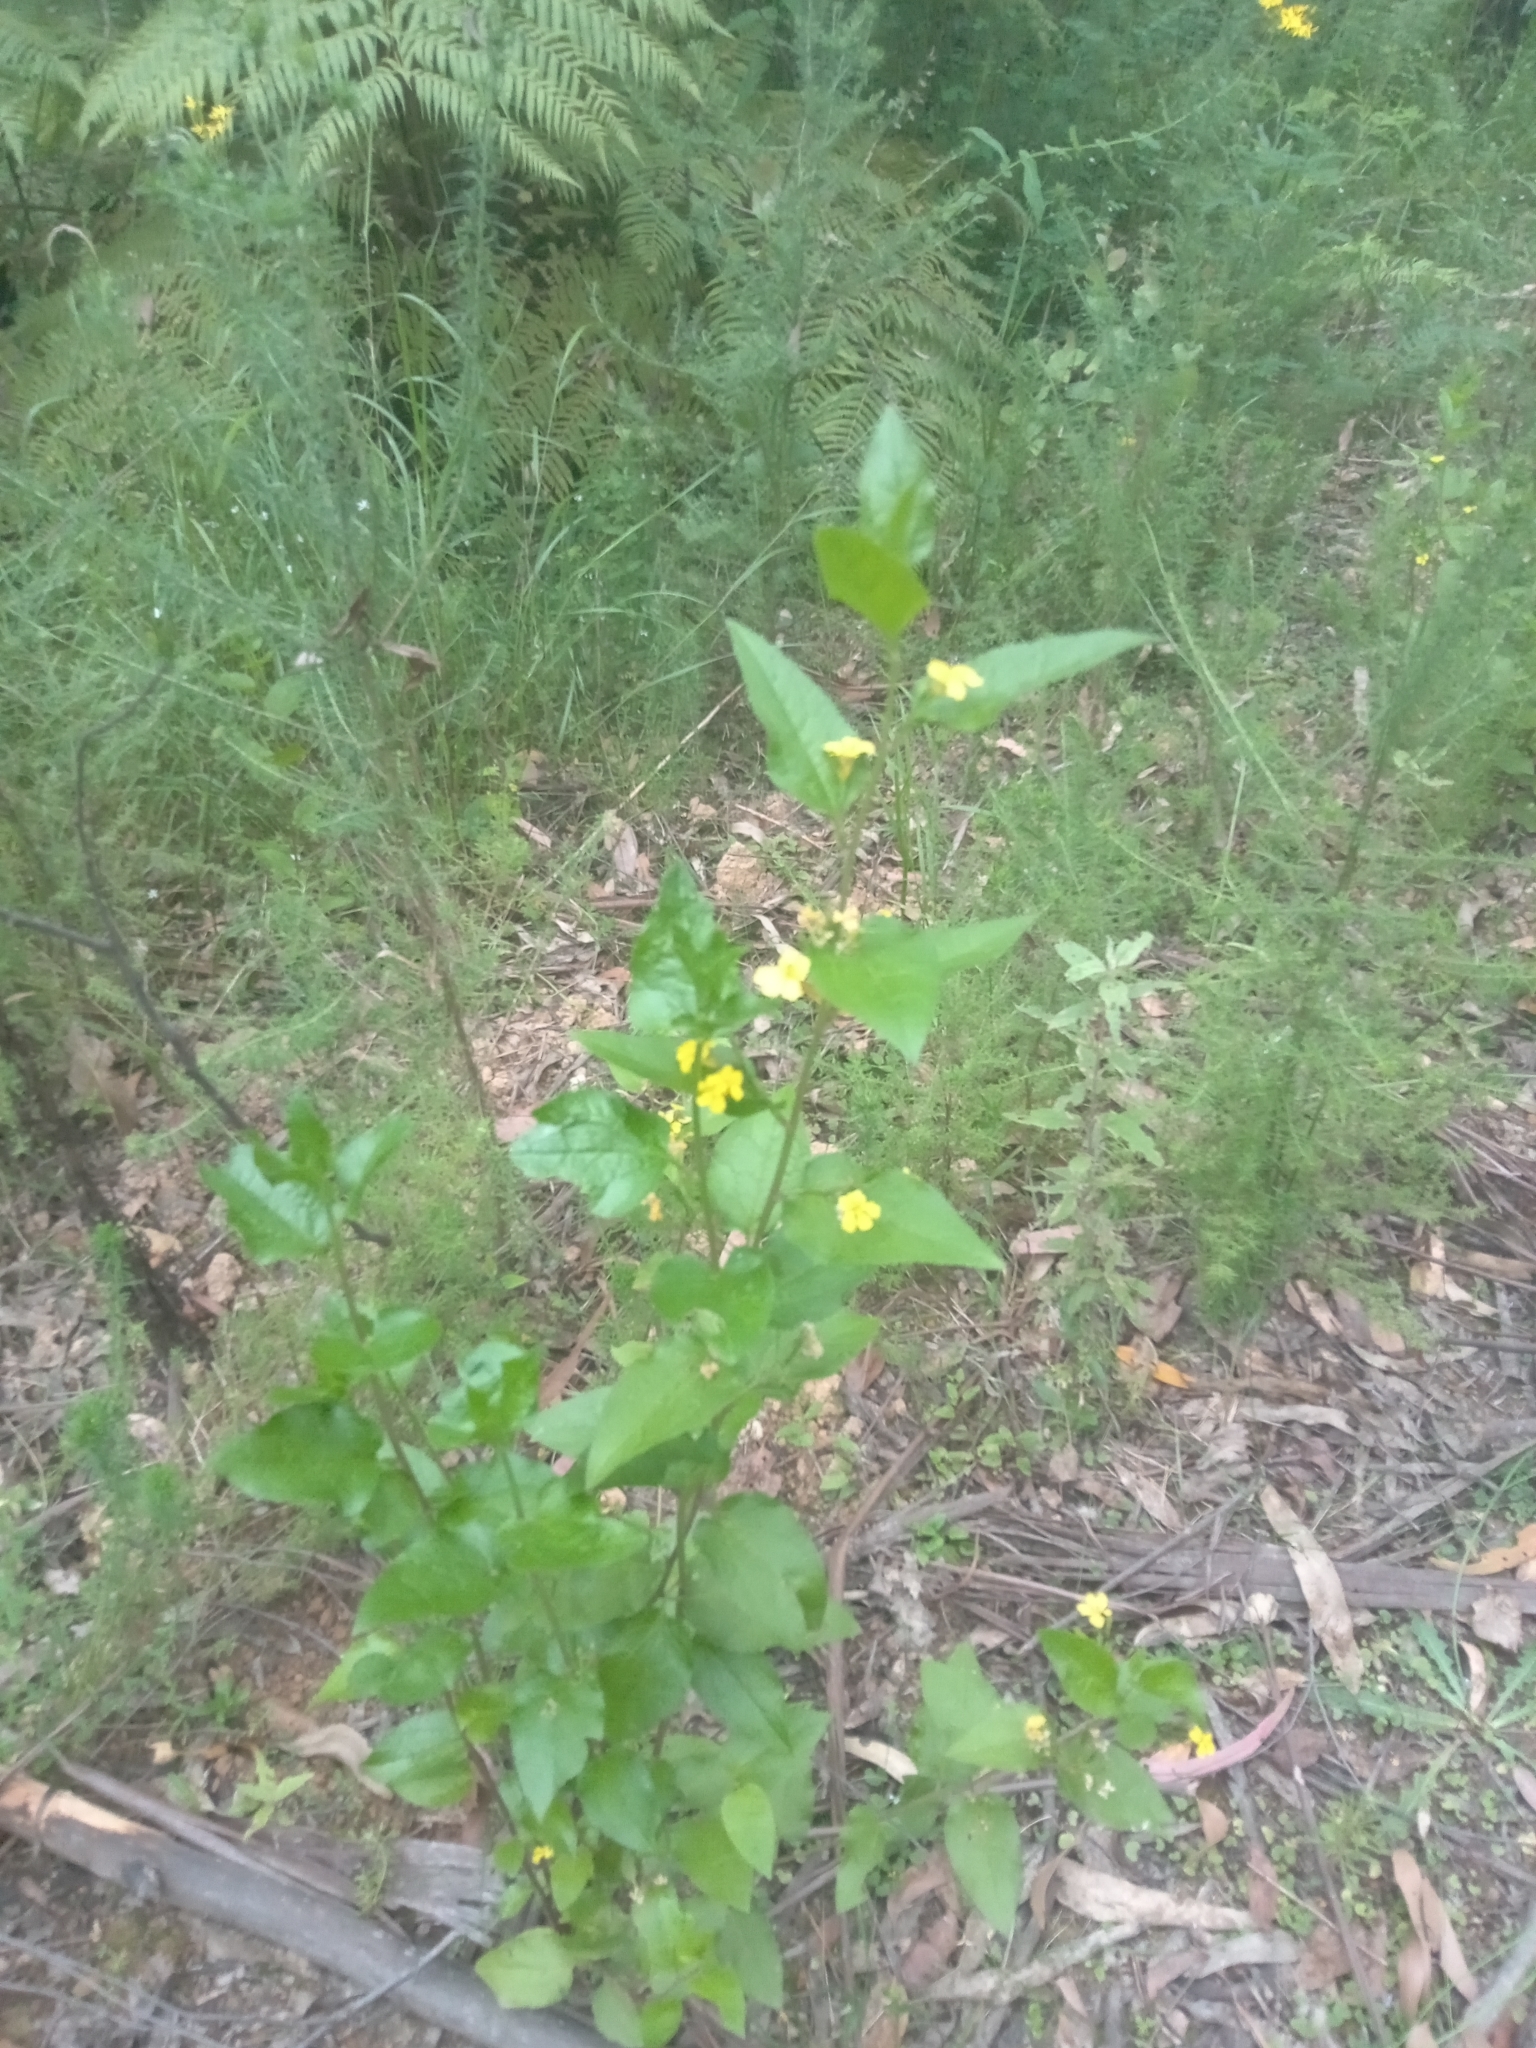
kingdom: Plantae
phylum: Tracheophyta
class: Magnoliopsida
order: Asterales
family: Goodeniaceae
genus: Goodenia
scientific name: Goodenia ovata
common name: Hop goodenia
